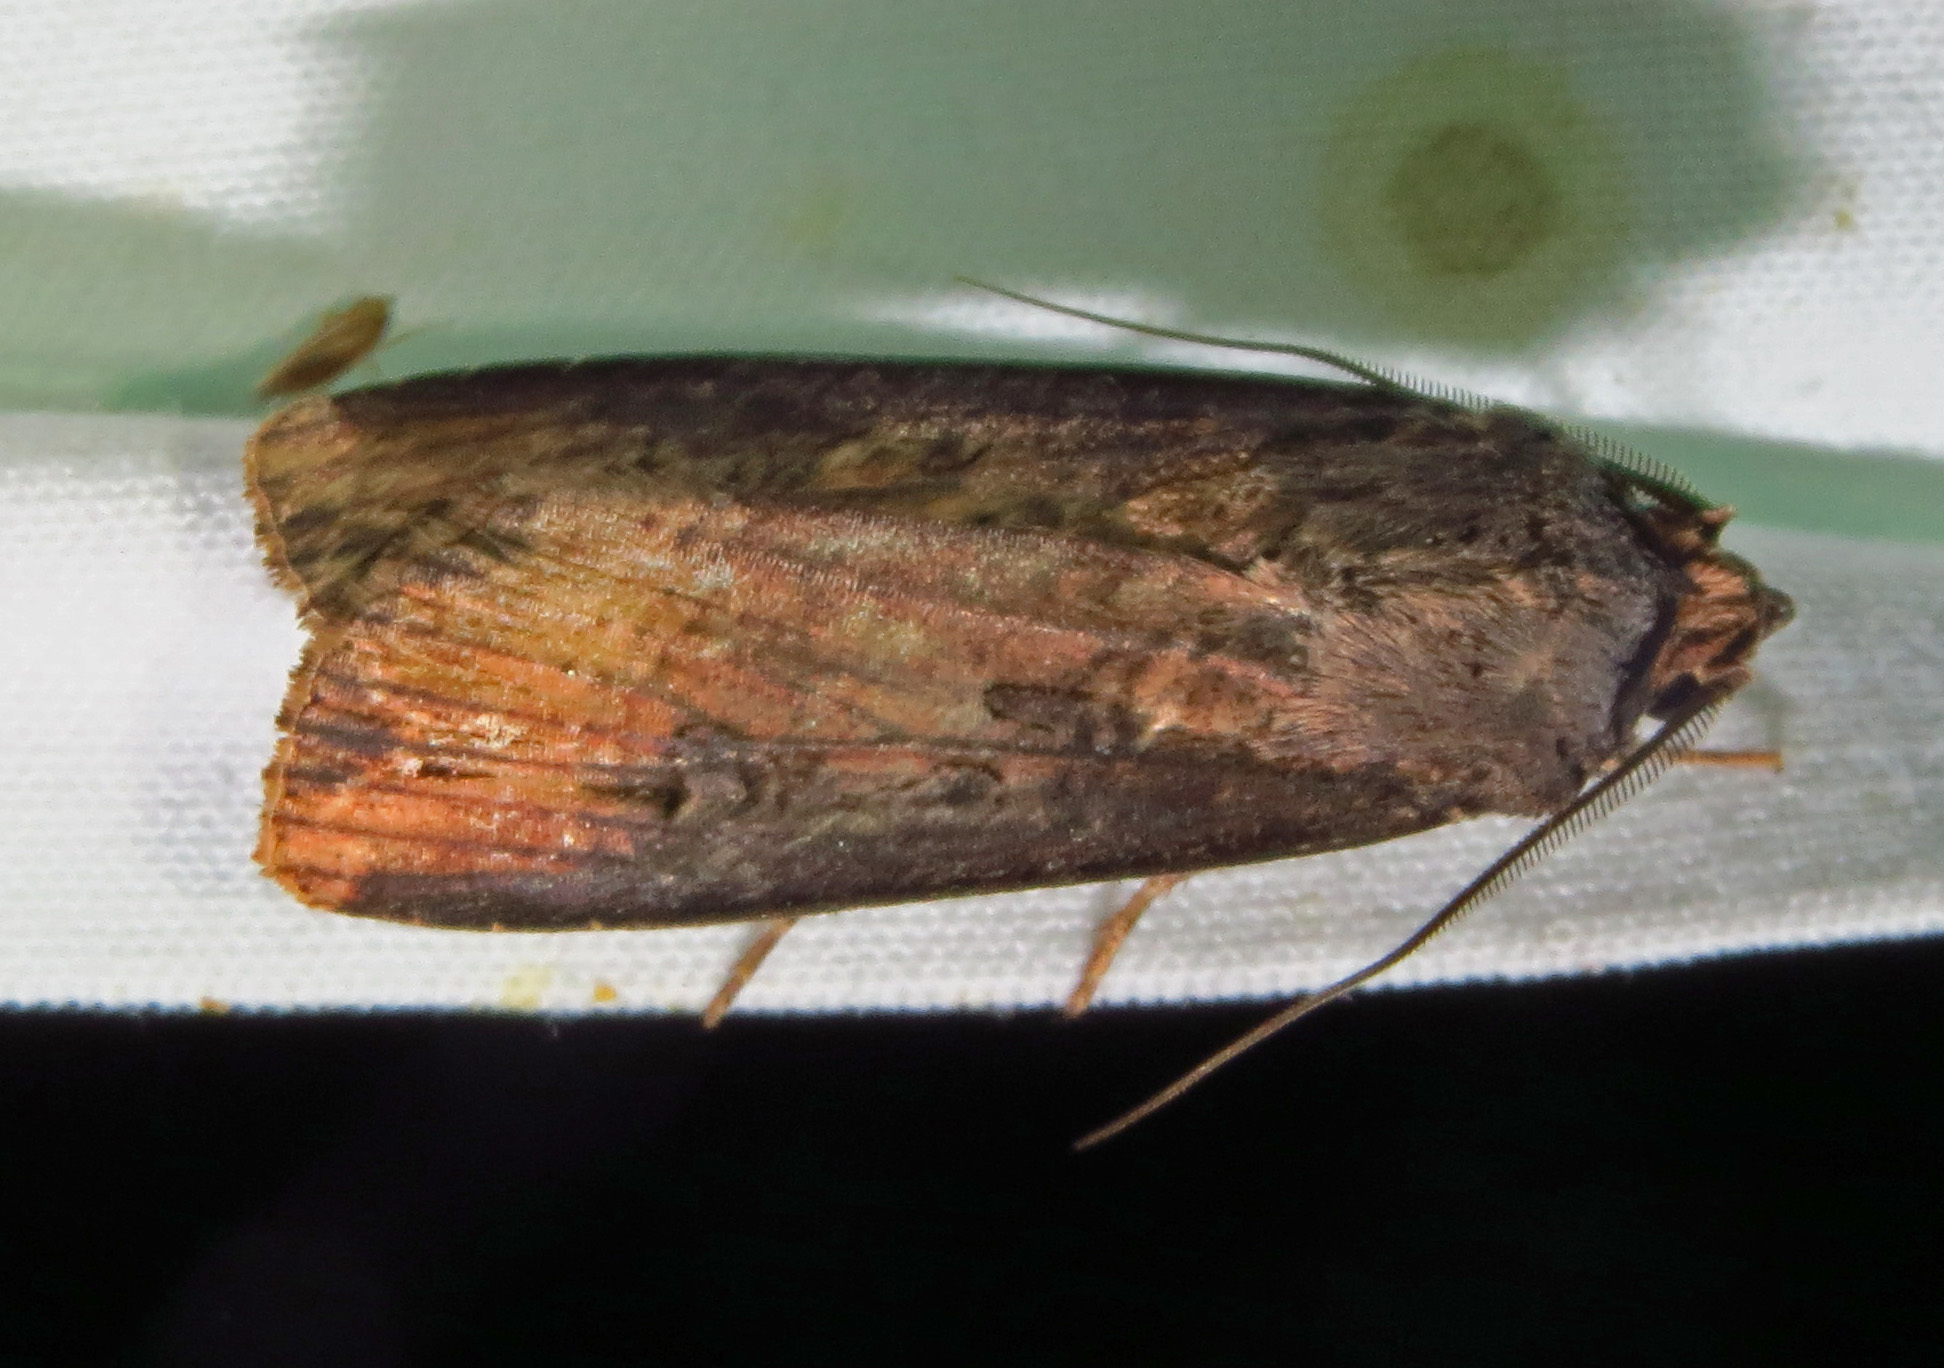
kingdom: Animalia
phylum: Arthropoda
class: Insecta
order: Lepidoptera
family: Noctuidae
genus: Agrotis
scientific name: Agrotis ipsilon
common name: Dark sword-grass
